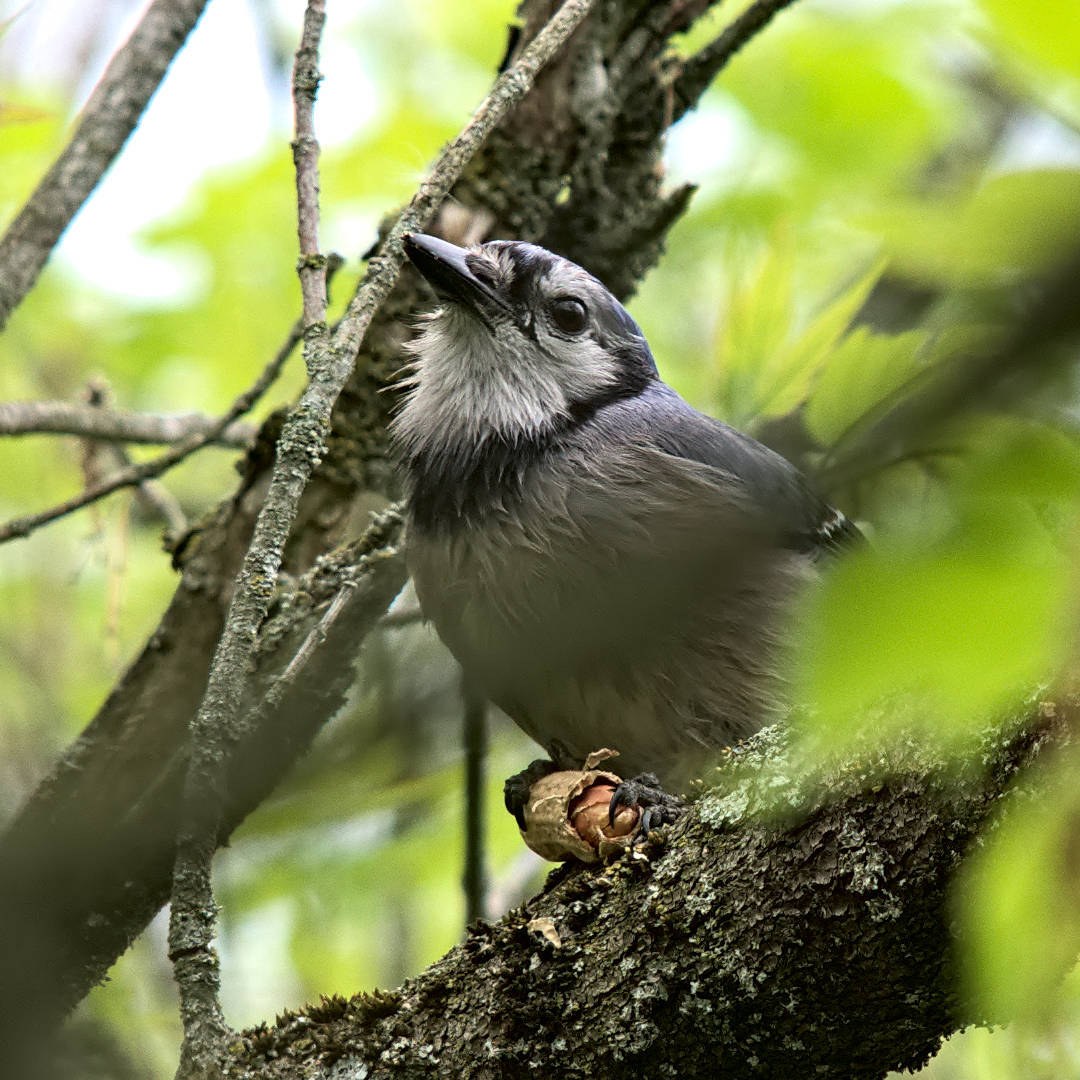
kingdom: Animalia
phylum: Chordata
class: Aves
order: Passeriformes
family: Corvidae
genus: Cyanocitta
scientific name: Cyanocitta cristata
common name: Blue jay
